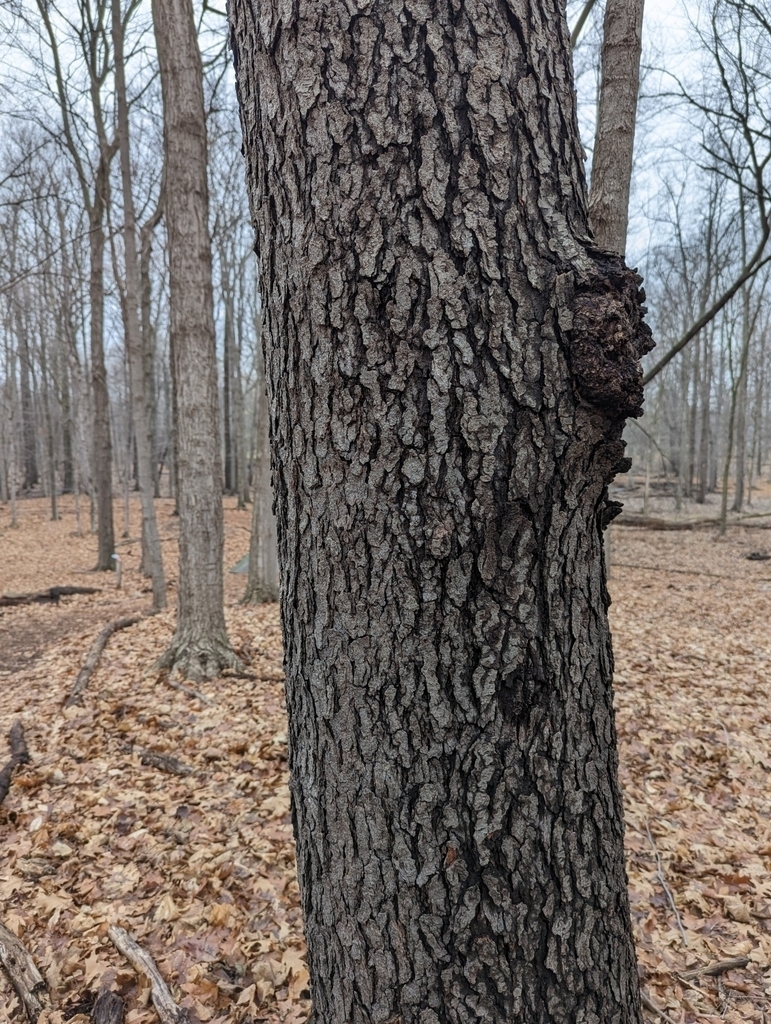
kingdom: Plantae
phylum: Tracheophyta
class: Magnoliopsida
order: Rosales
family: Rosaceae
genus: Prunus
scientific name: Prunus serotina
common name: Black cherry
